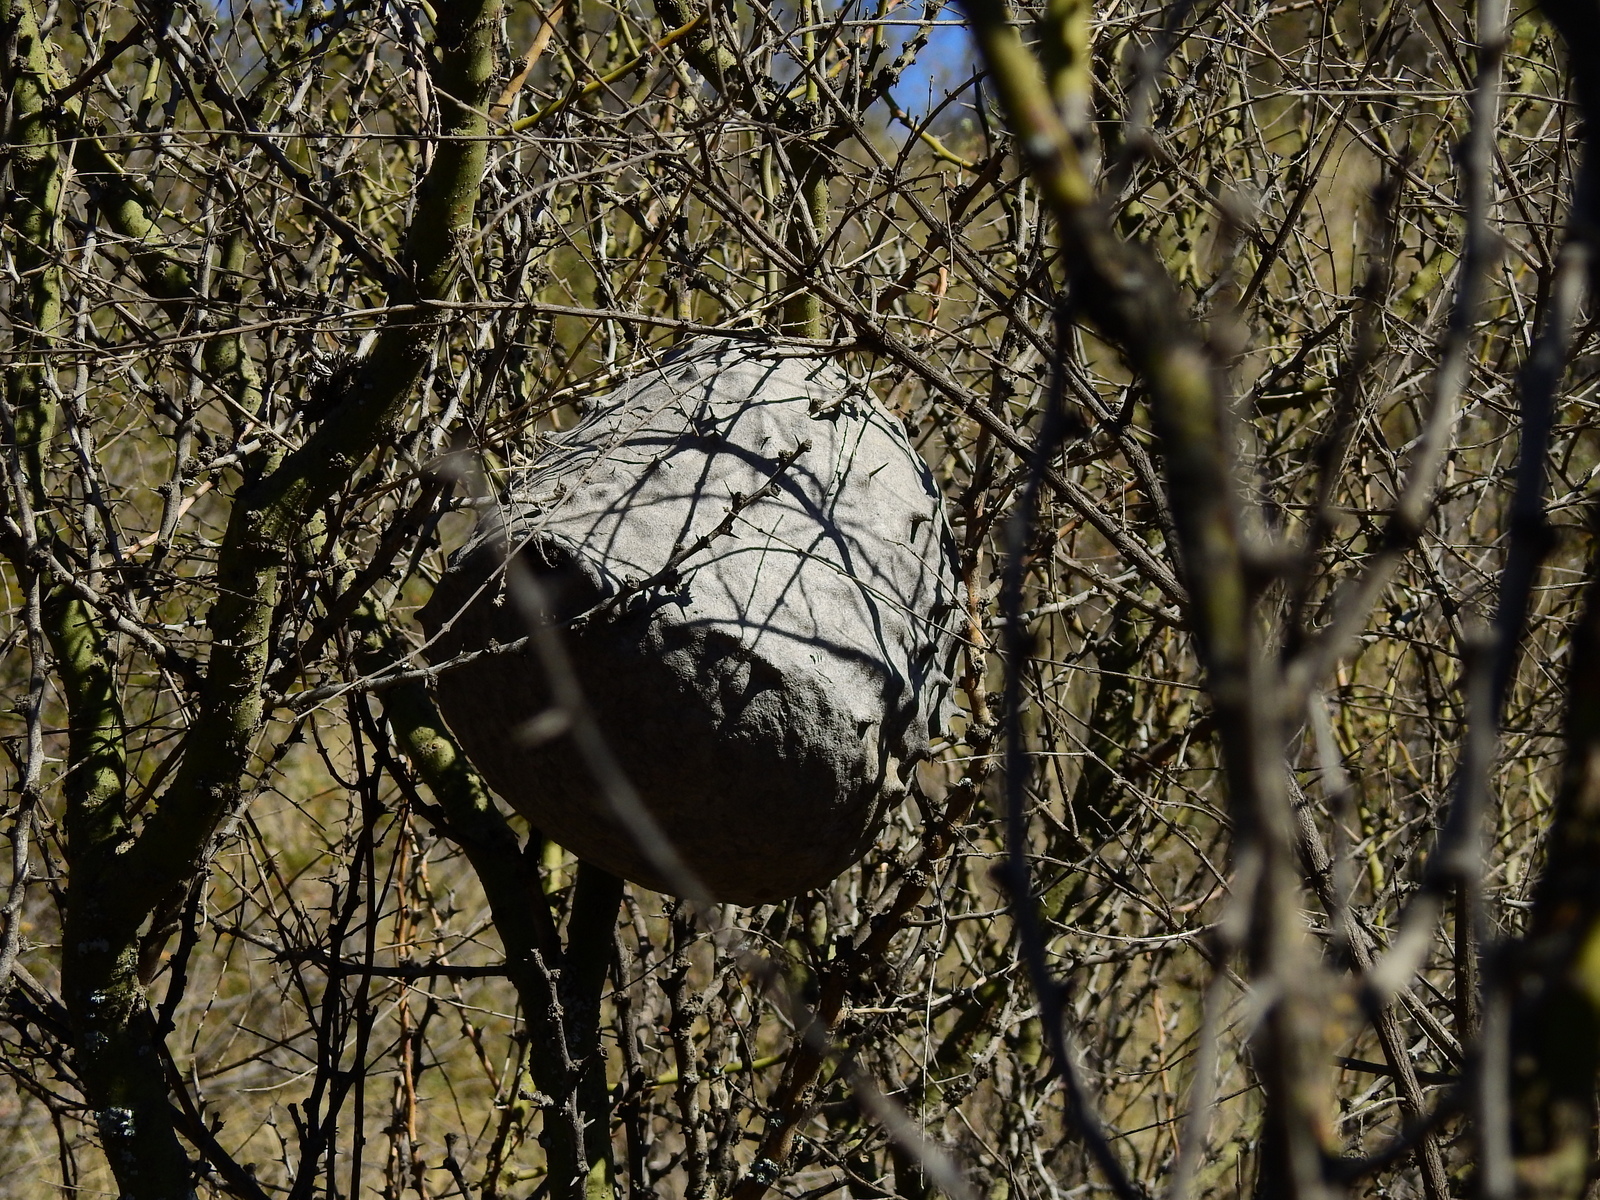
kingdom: Animalia
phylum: Arthropoda
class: Insecta
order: Hymenoptera
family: Eumenidae
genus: Polybia
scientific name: Polybia scutellaris
